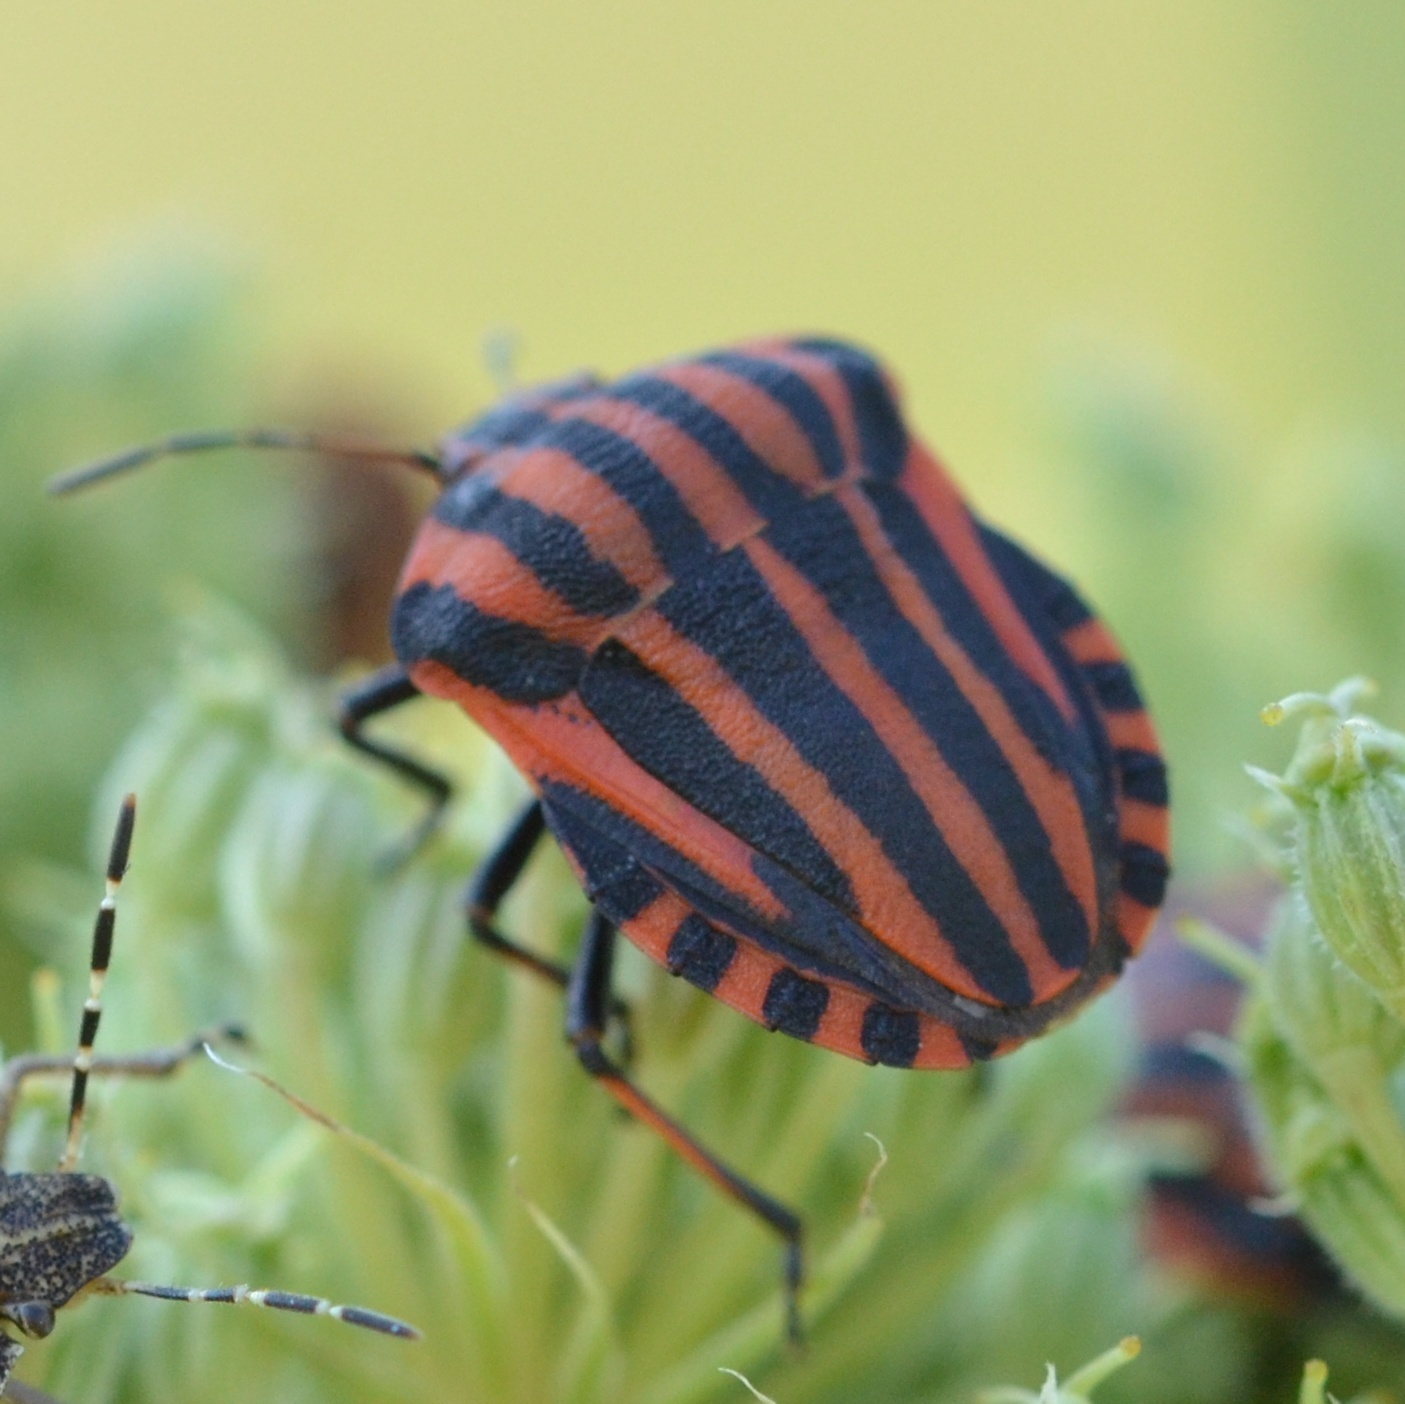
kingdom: Animalia
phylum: Arthropoda
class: Insecta
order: Hemiptera
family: Pentatomidae
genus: Graphosoma
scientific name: Graphosoma italicum
